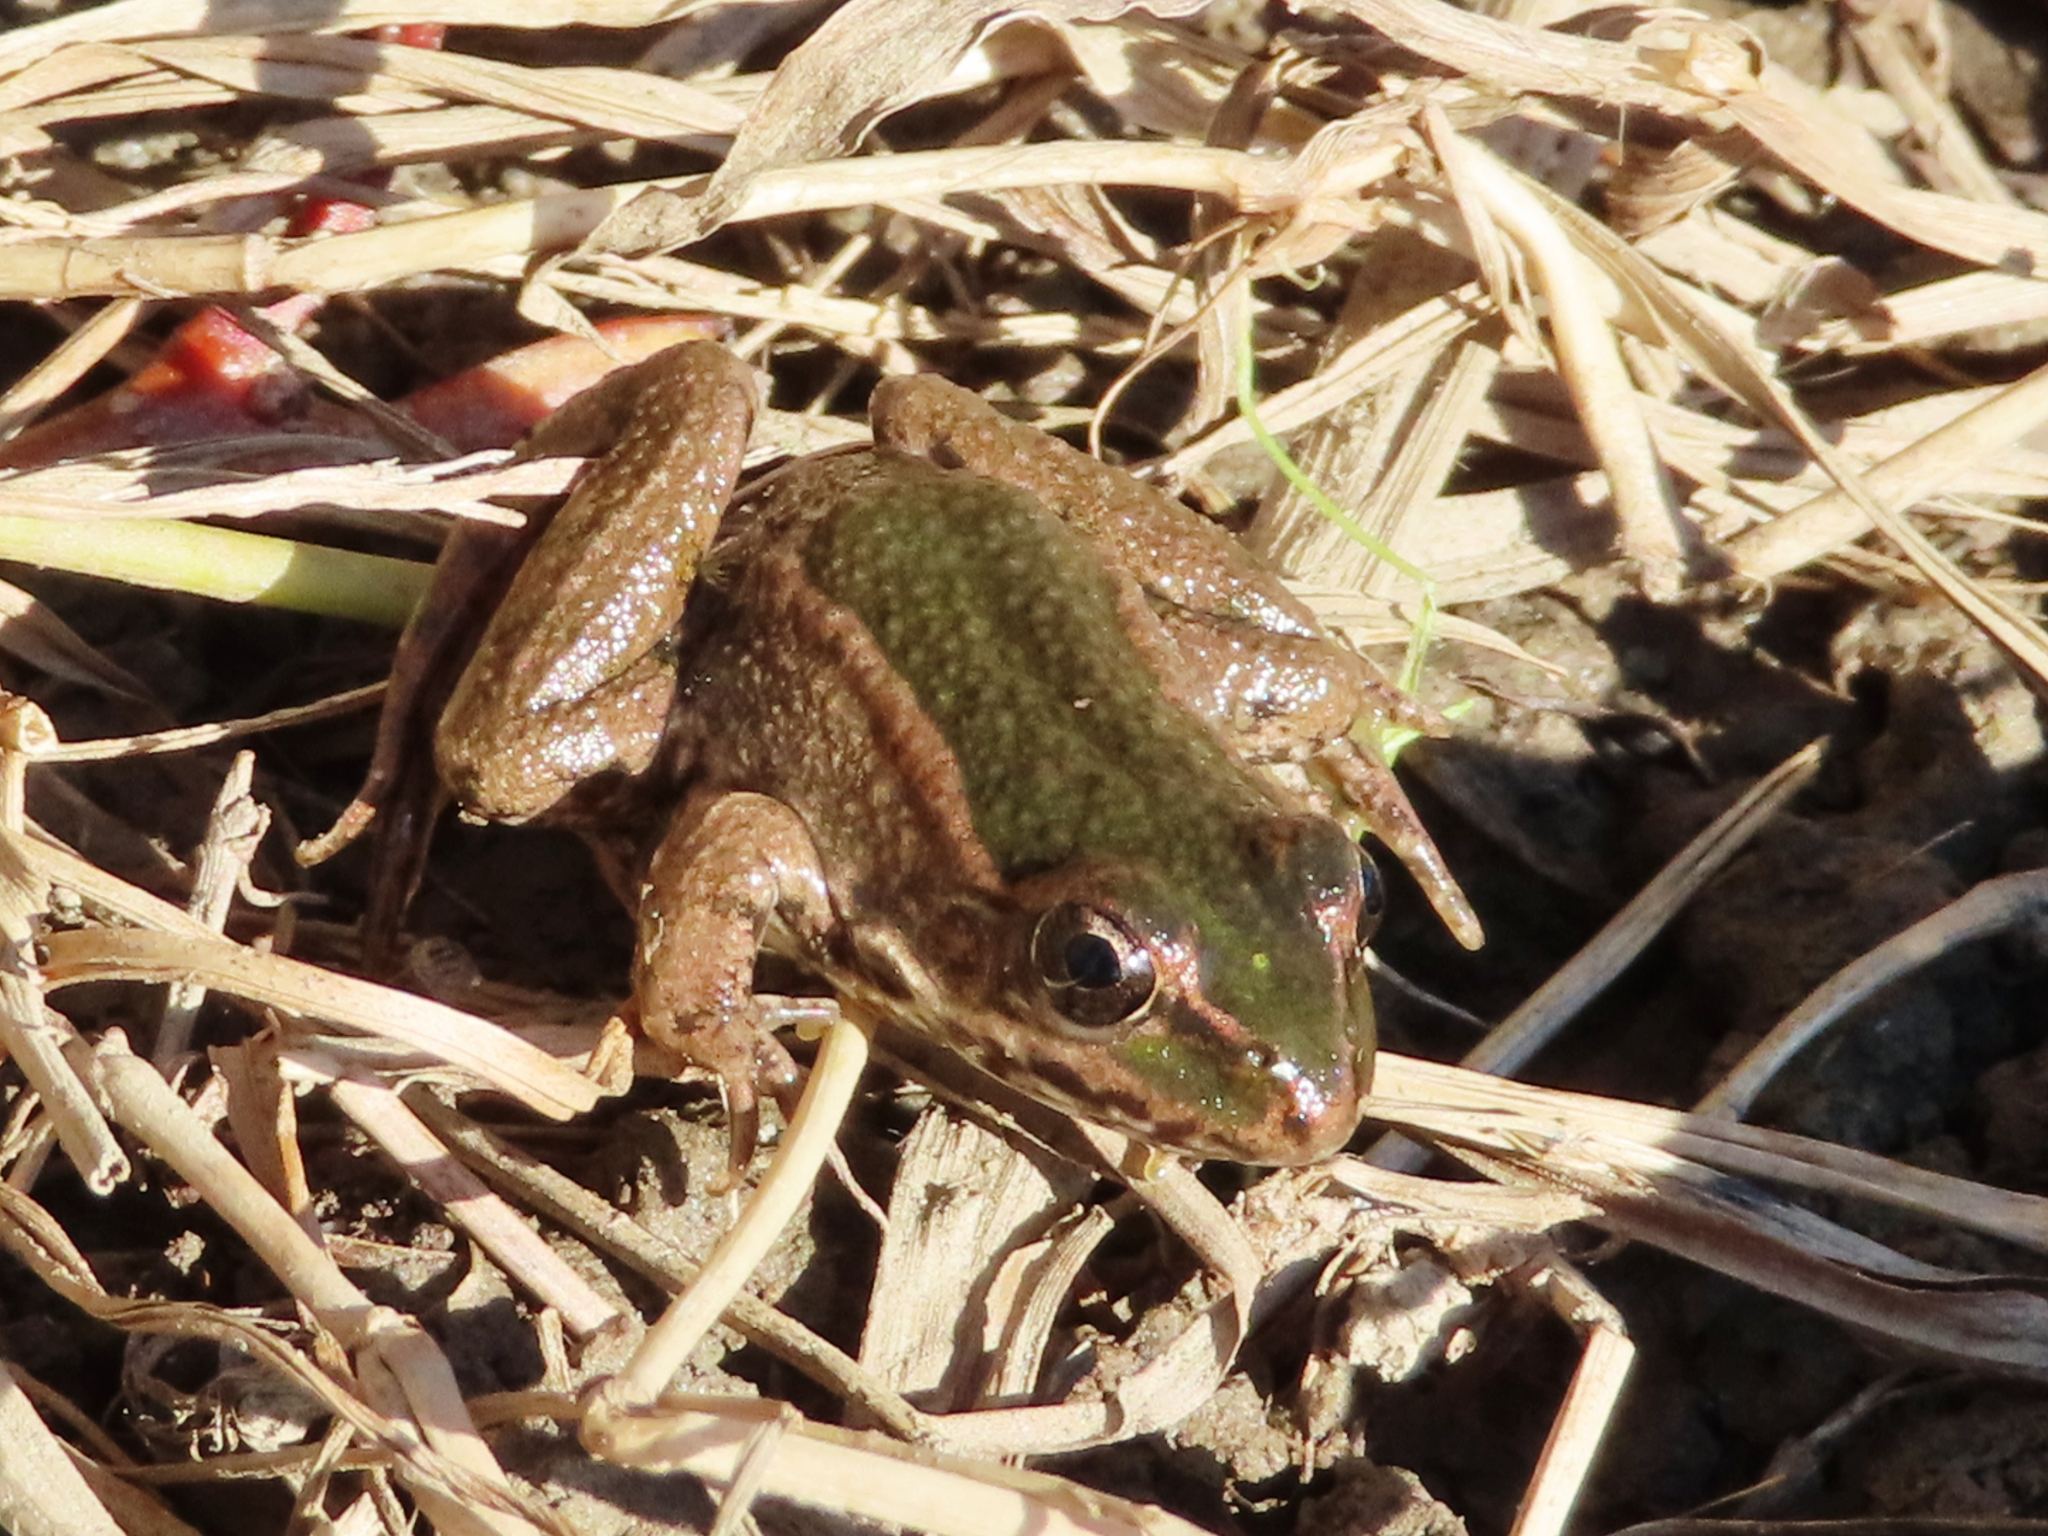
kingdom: Animalia
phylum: Chordata
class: Amphibia
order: Anura
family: Ranidae
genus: Pelophylax
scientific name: Pelophylax ridibundus
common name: Marsh frog
